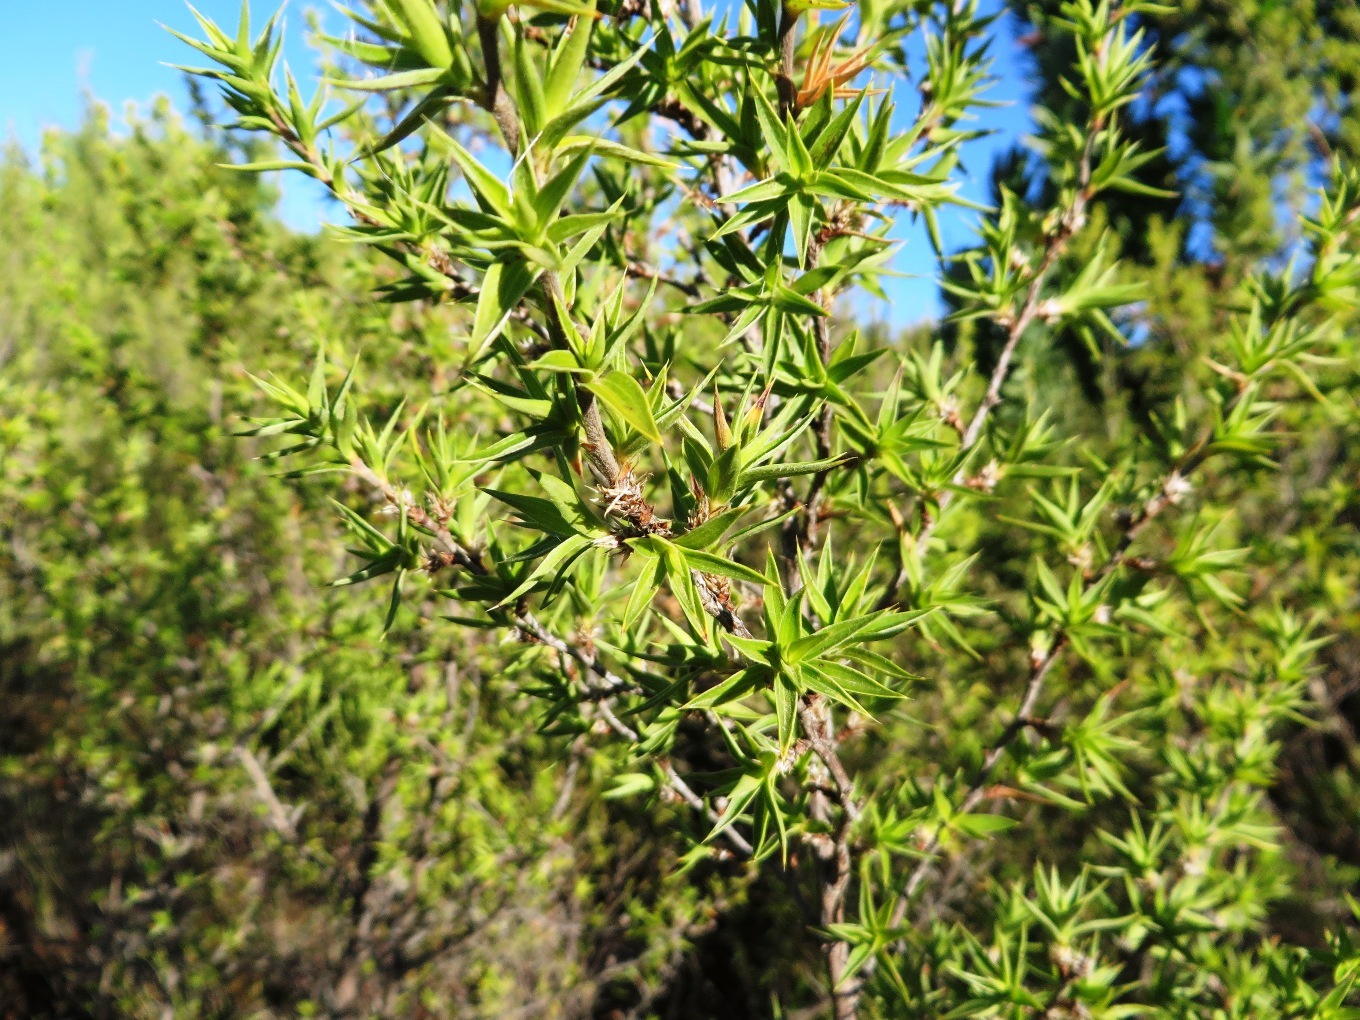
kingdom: Plantae
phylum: Tracheophyta
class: Magnoliopsida
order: Rosales
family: Rosaceae
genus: Cliffortia
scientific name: Cliffortia ruscifolia
